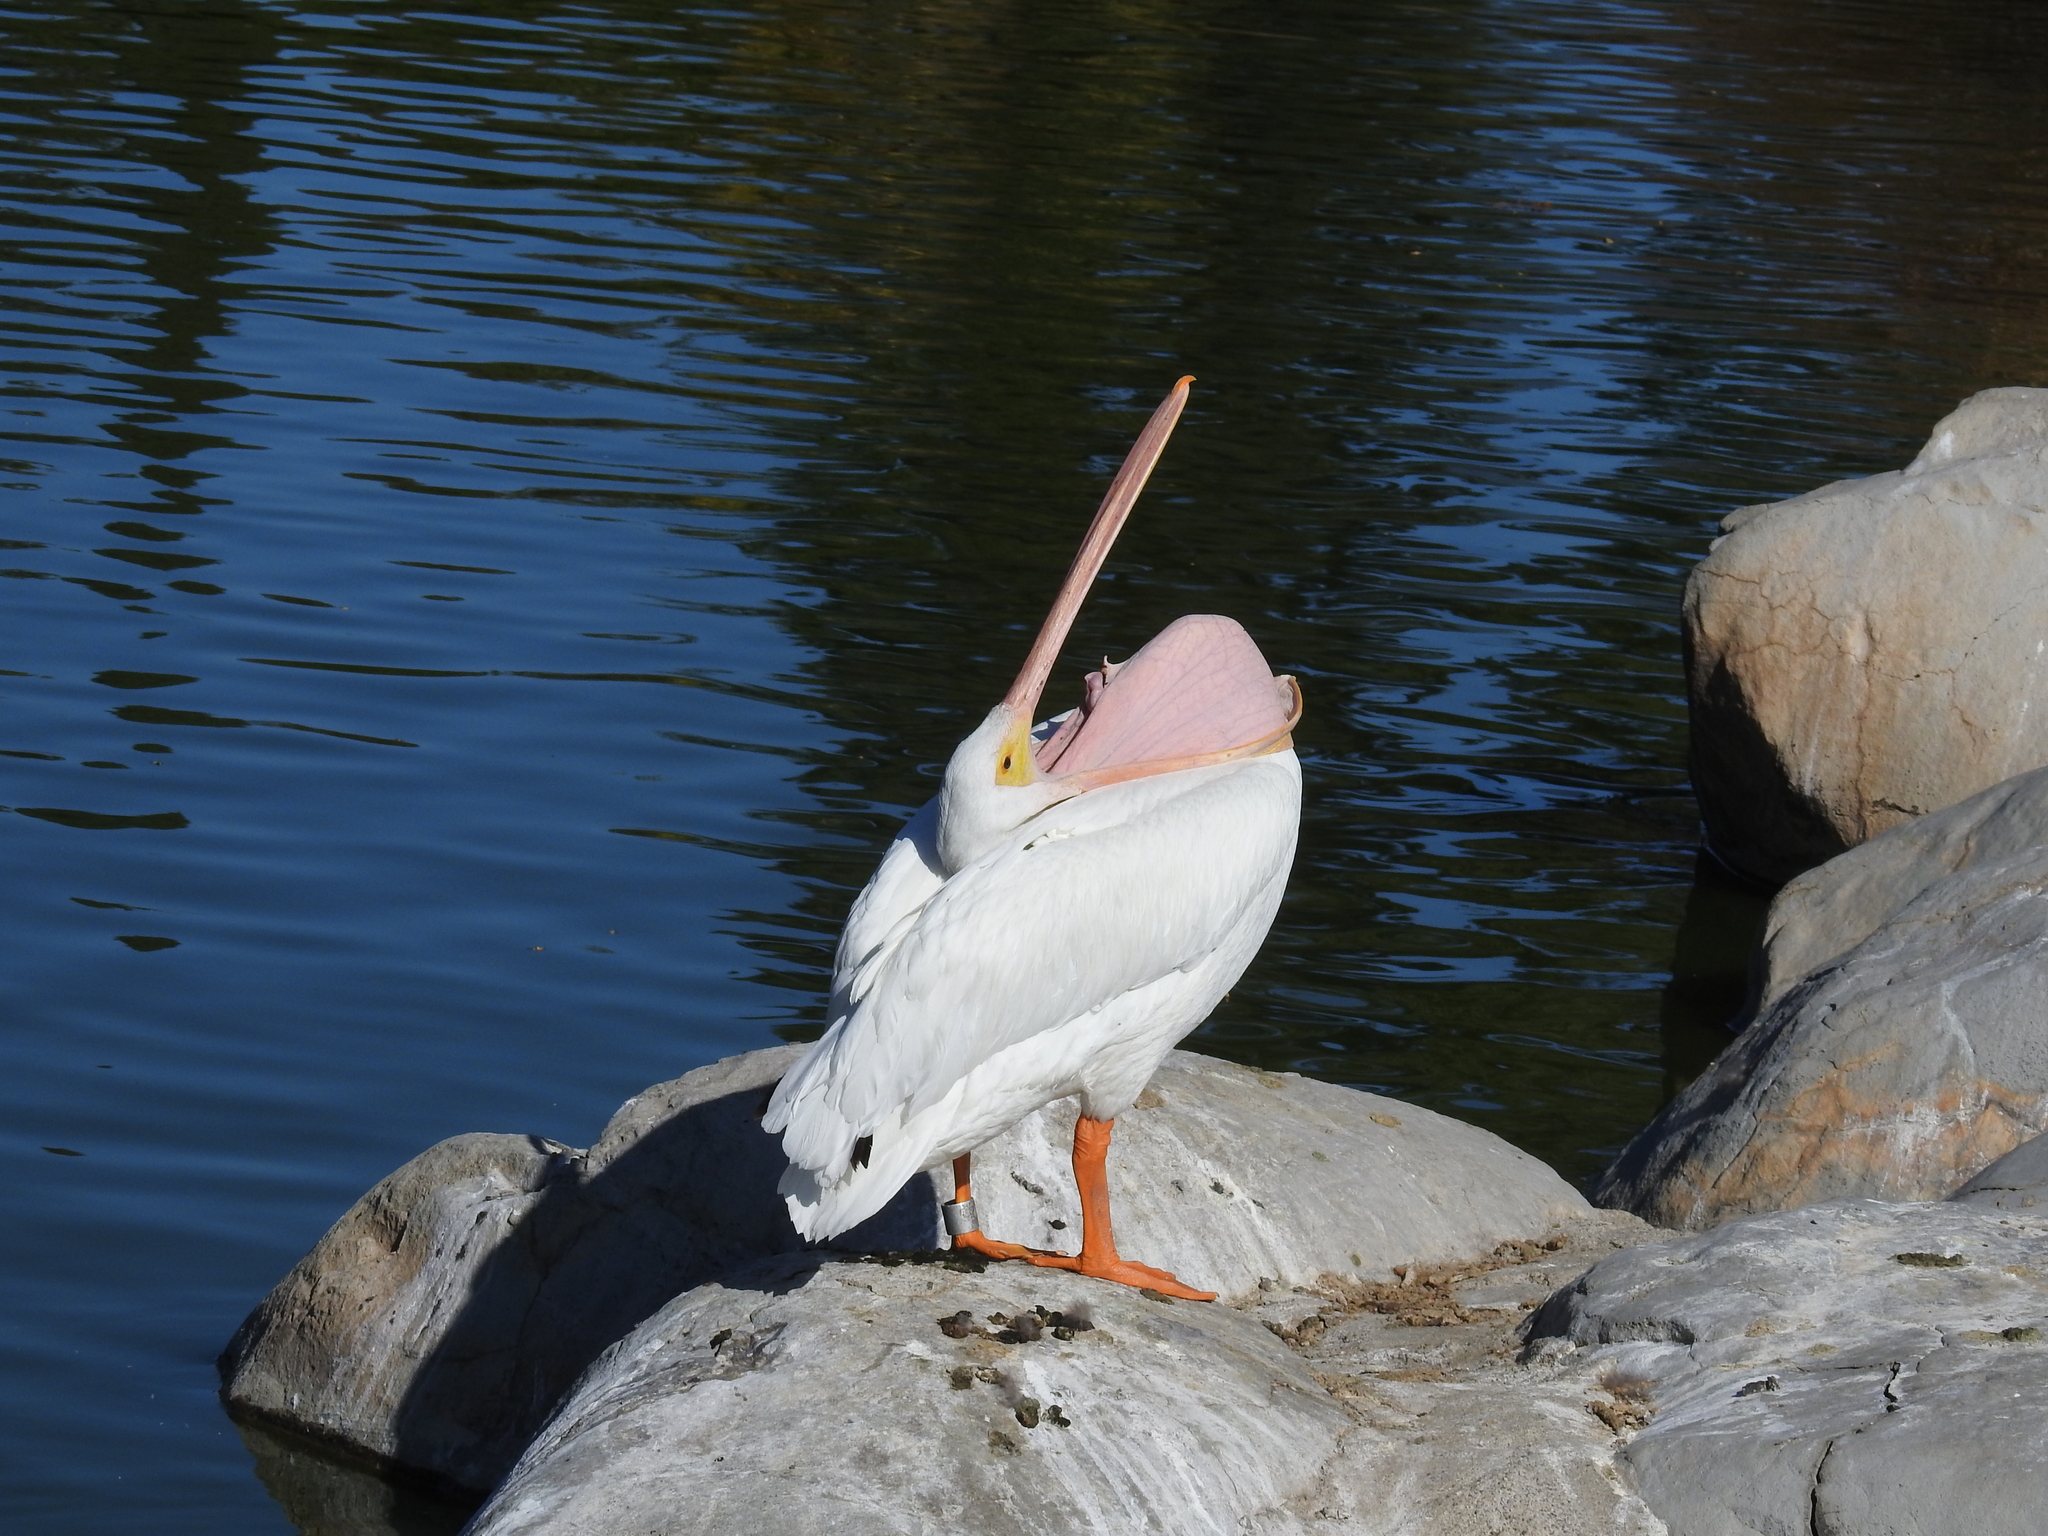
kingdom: Animalia
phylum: Chordata
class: Aves
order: Pelecaniformes
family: Pelecanidae
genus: Pelecanus
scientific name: Pelecanus erythrorhynchos
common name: American white pelican
